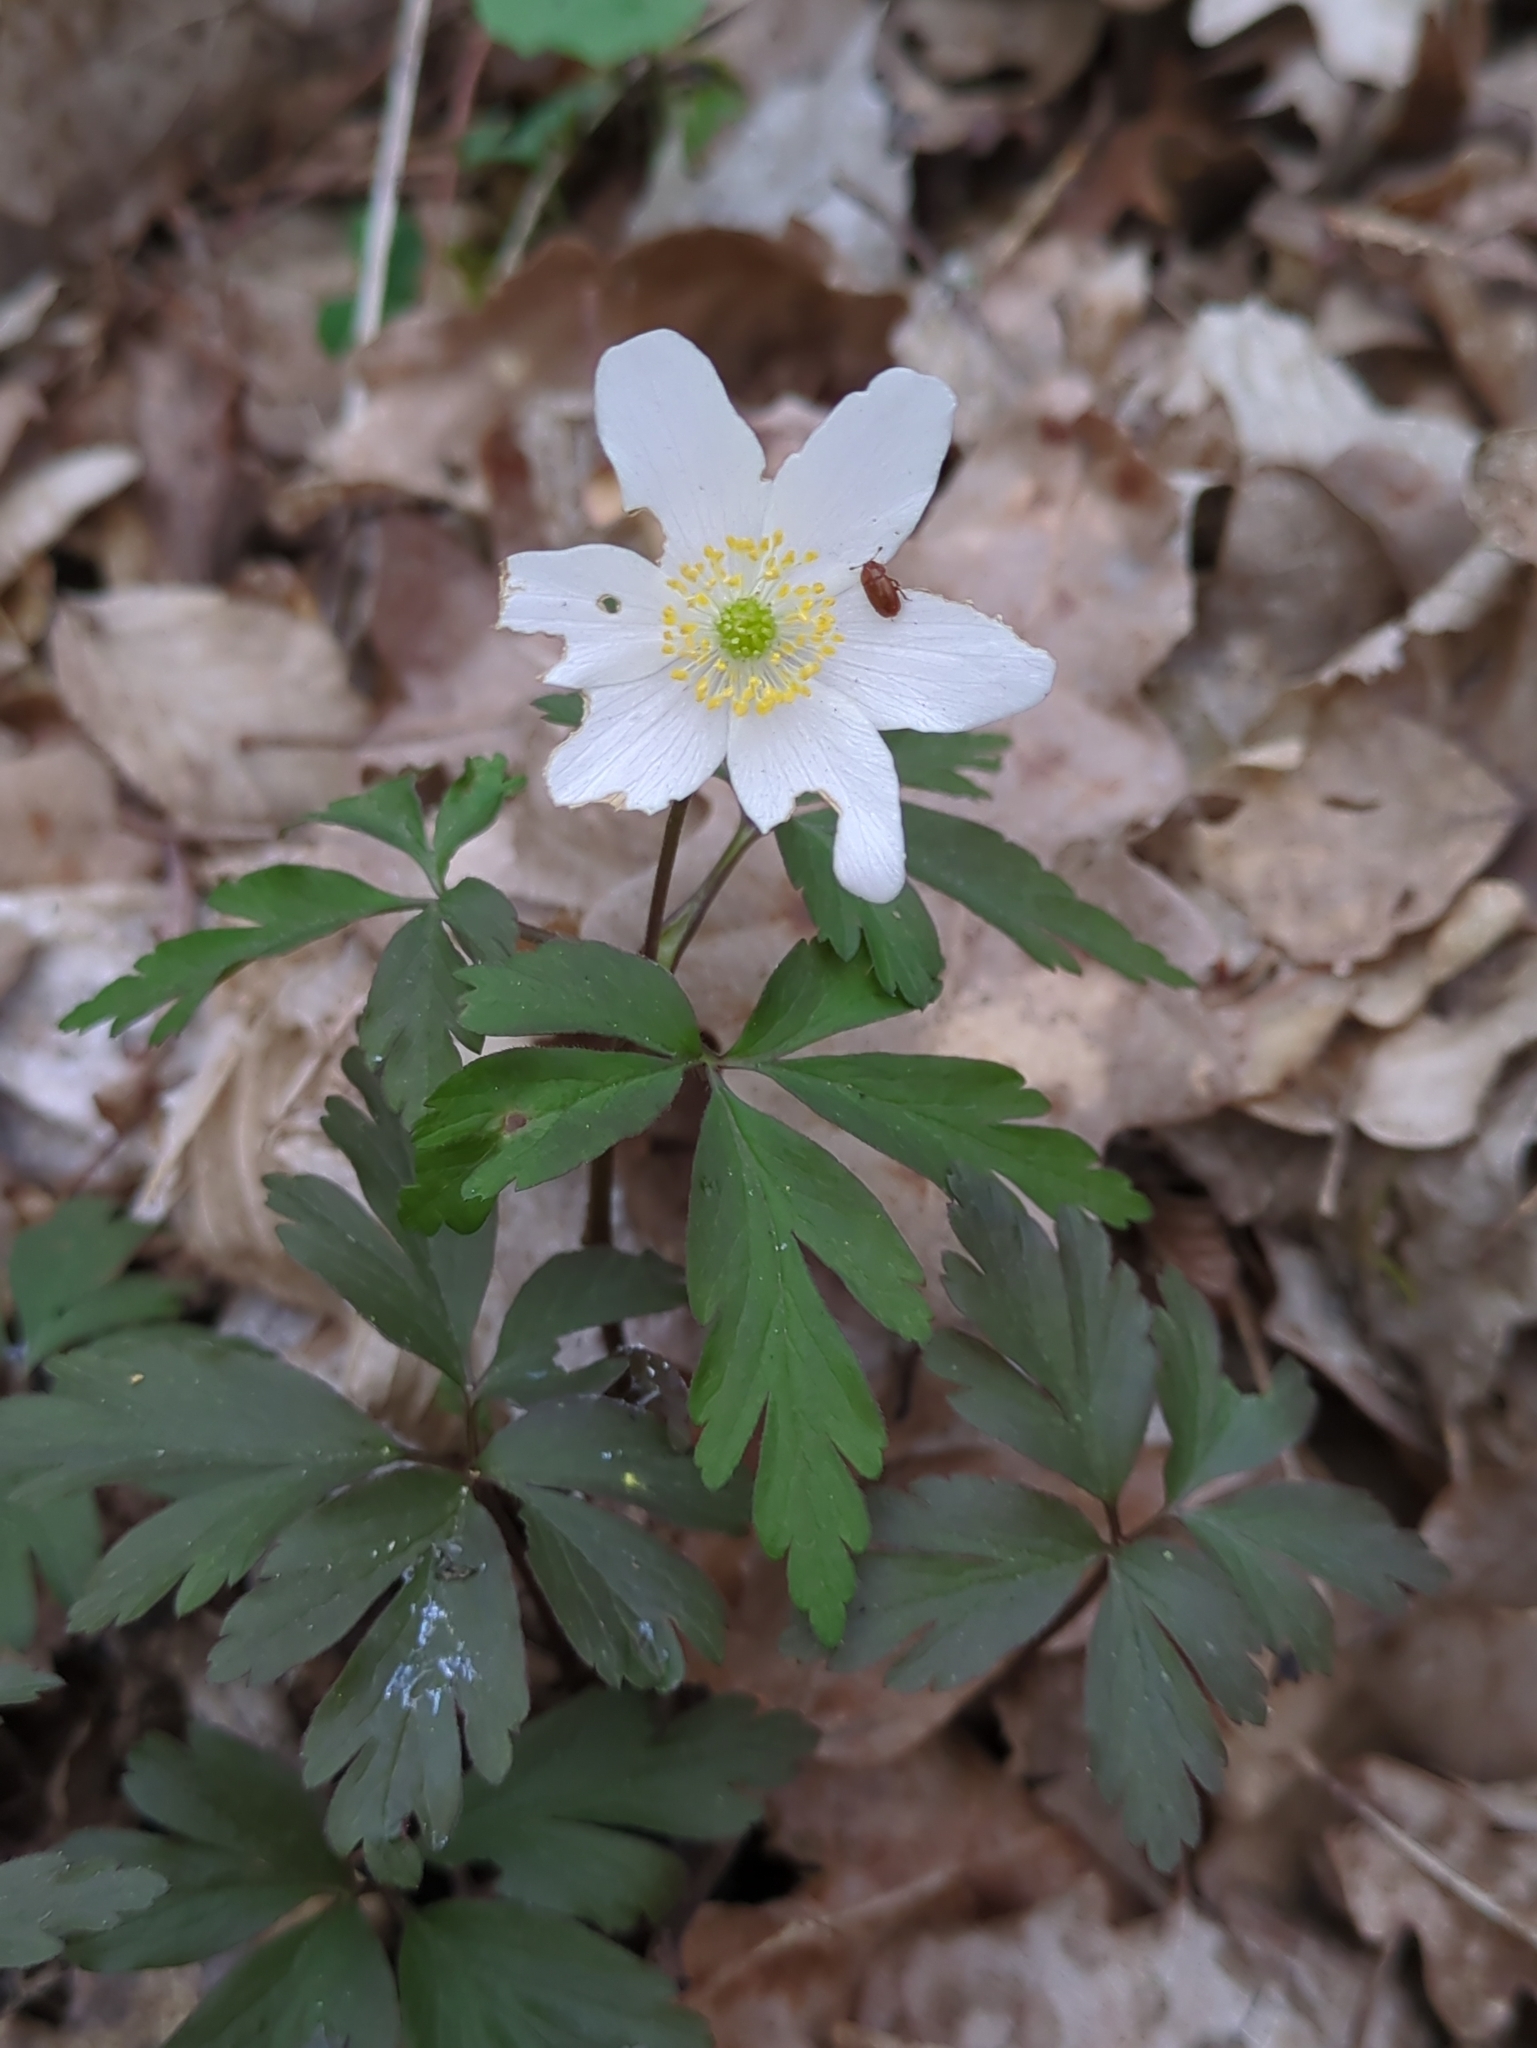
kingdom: Plantae
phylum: Tracheophyta
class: Magnoliopsida
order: Ranunculales
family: Ranunculaceae
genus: Anemone
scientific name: Anemone nemorosa
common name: Wood anemone
